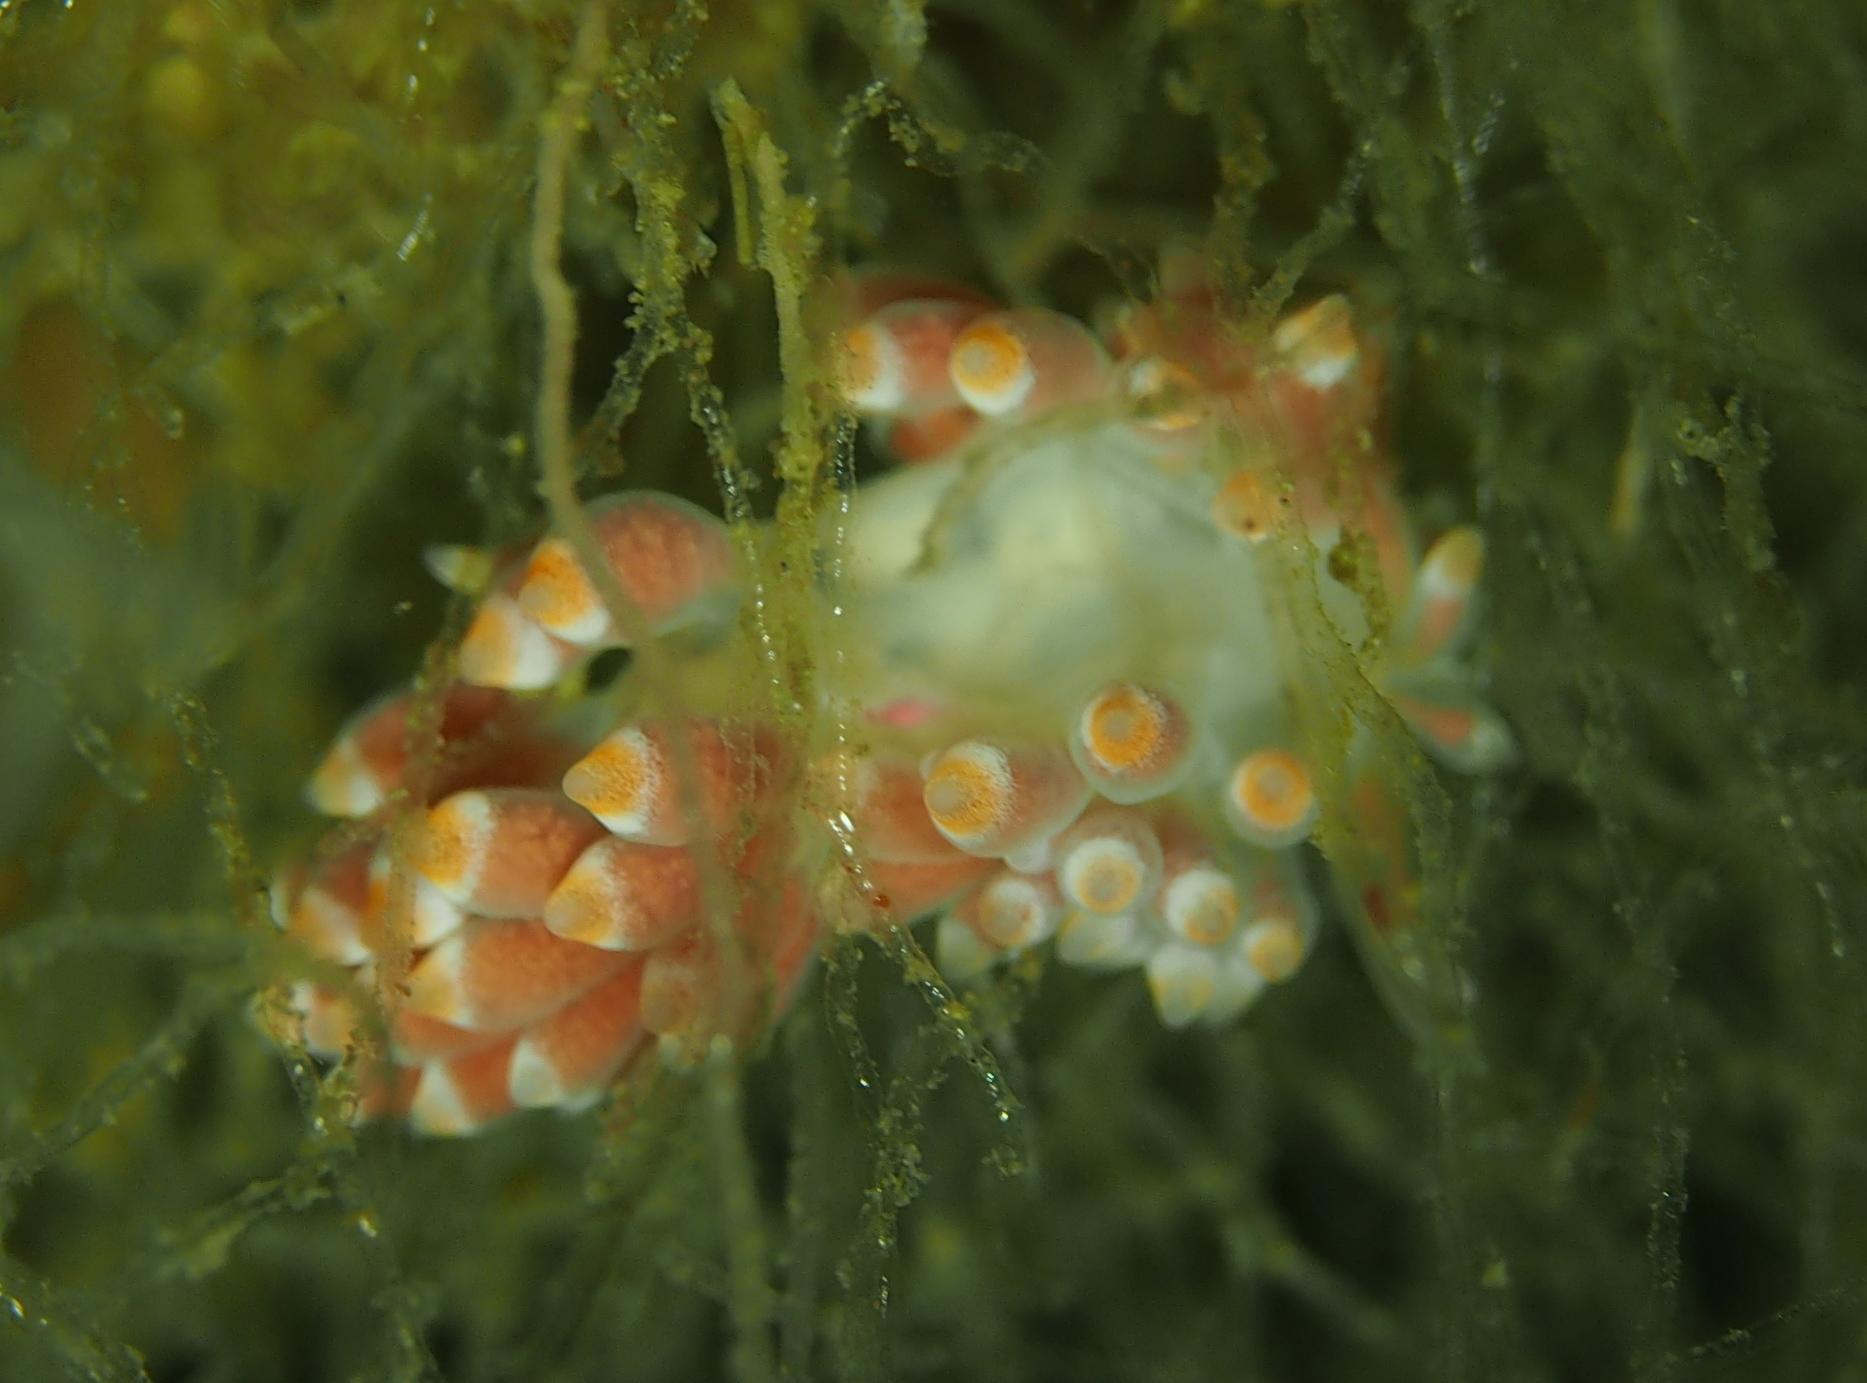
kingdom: Animalia
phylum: Mollusca
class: Gastropoda
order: Nudibranchia
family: Trinchesiidae
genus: Catriona
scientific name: Catriona aurantia
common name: Corange-tip cuthona
